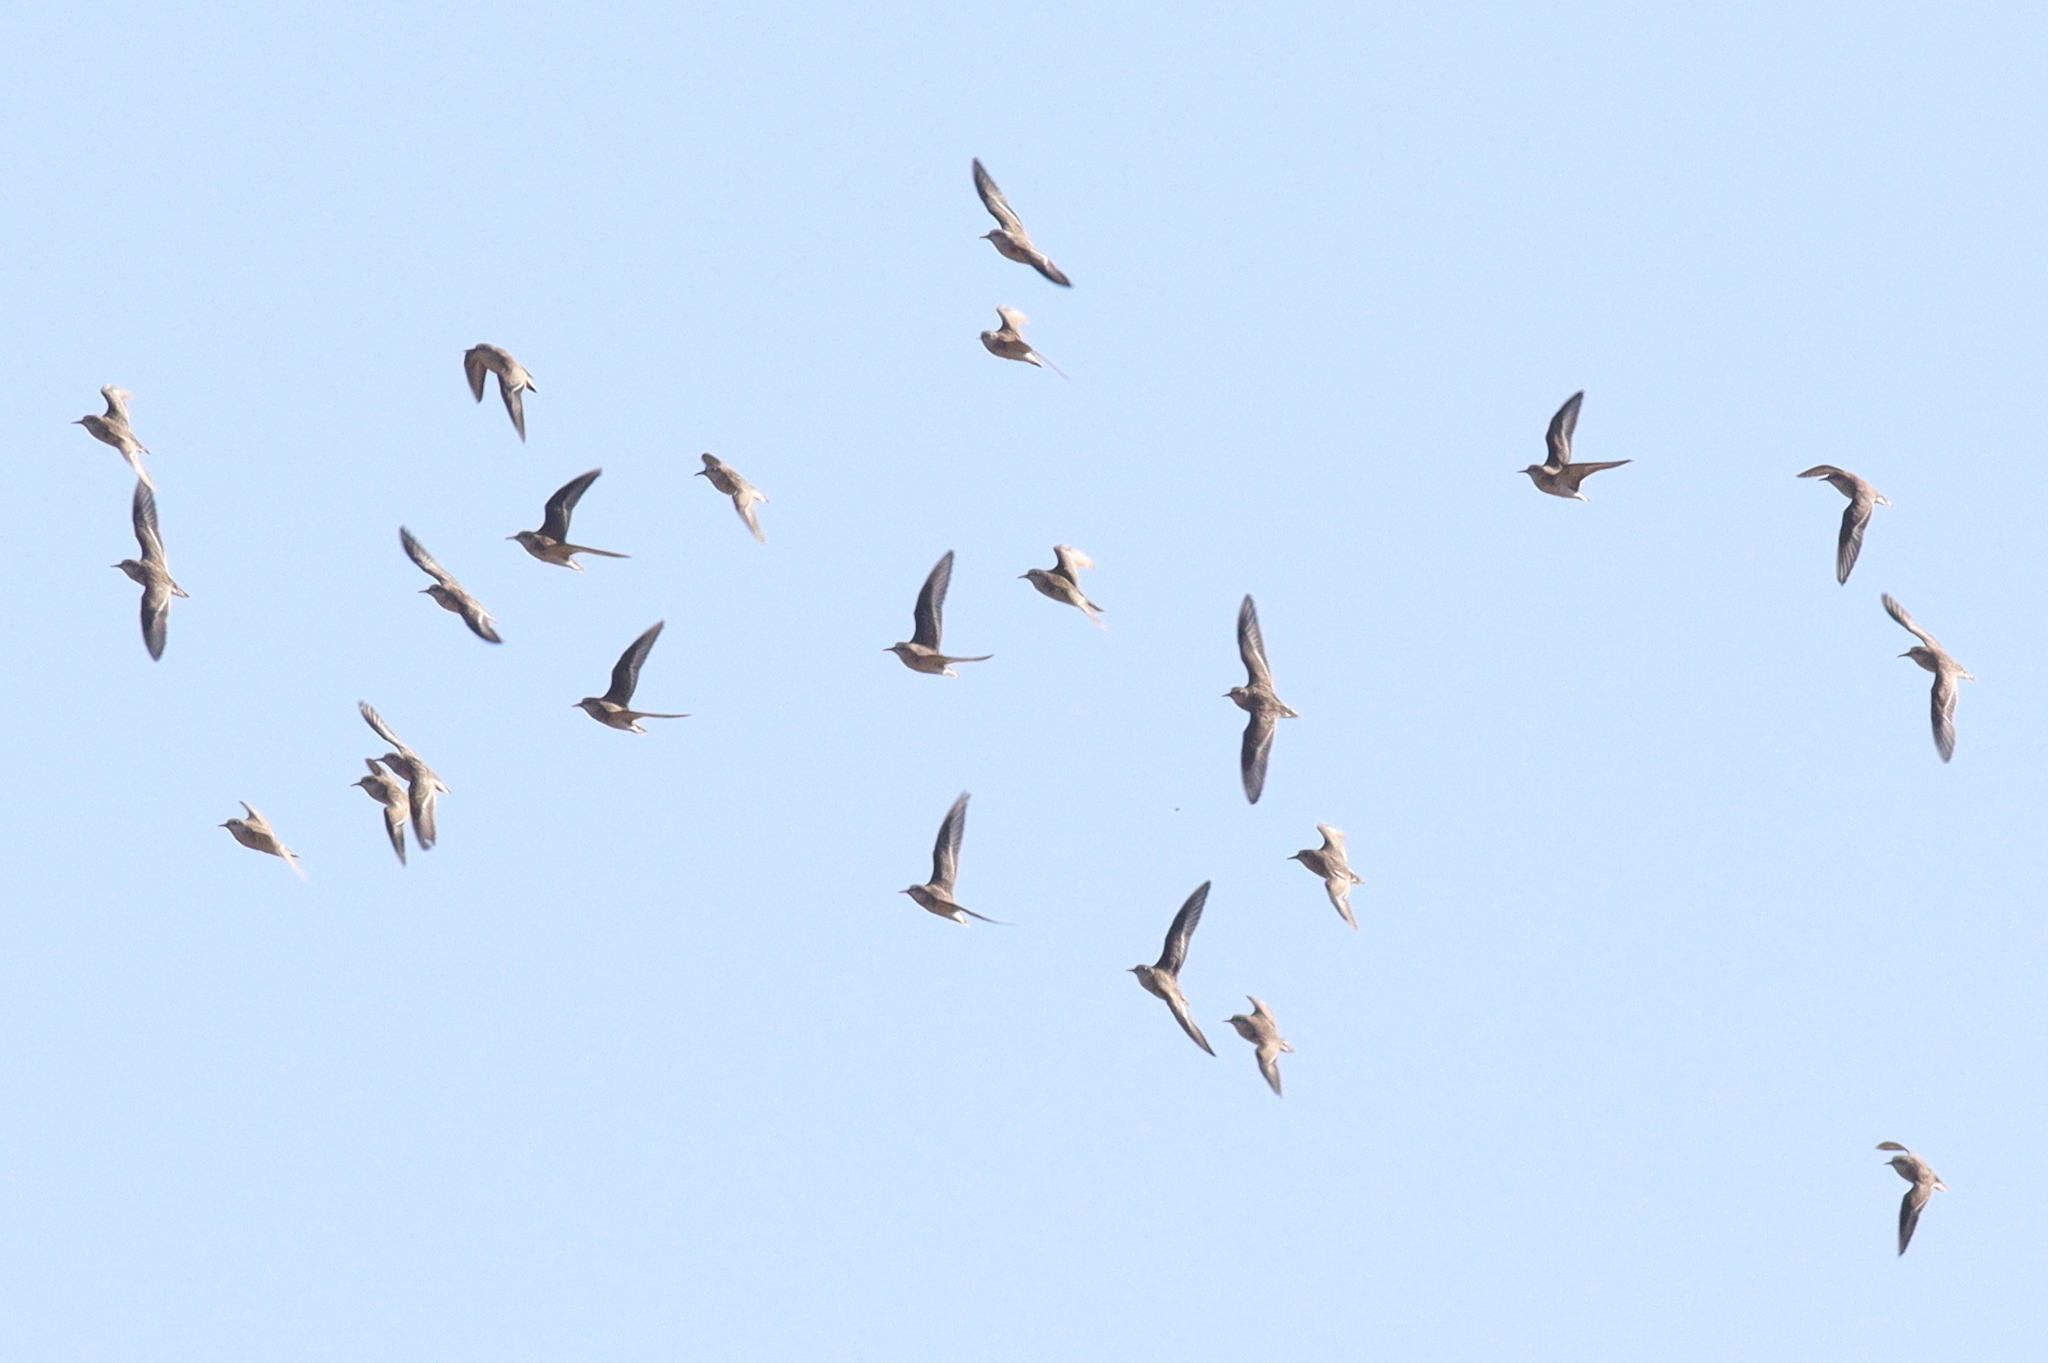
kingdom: Animalia
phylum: Chordata
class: Aves
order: Charadriiformes
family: Scolopacidae
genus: Calidris
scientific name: Calidris minuta
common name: Little stint
